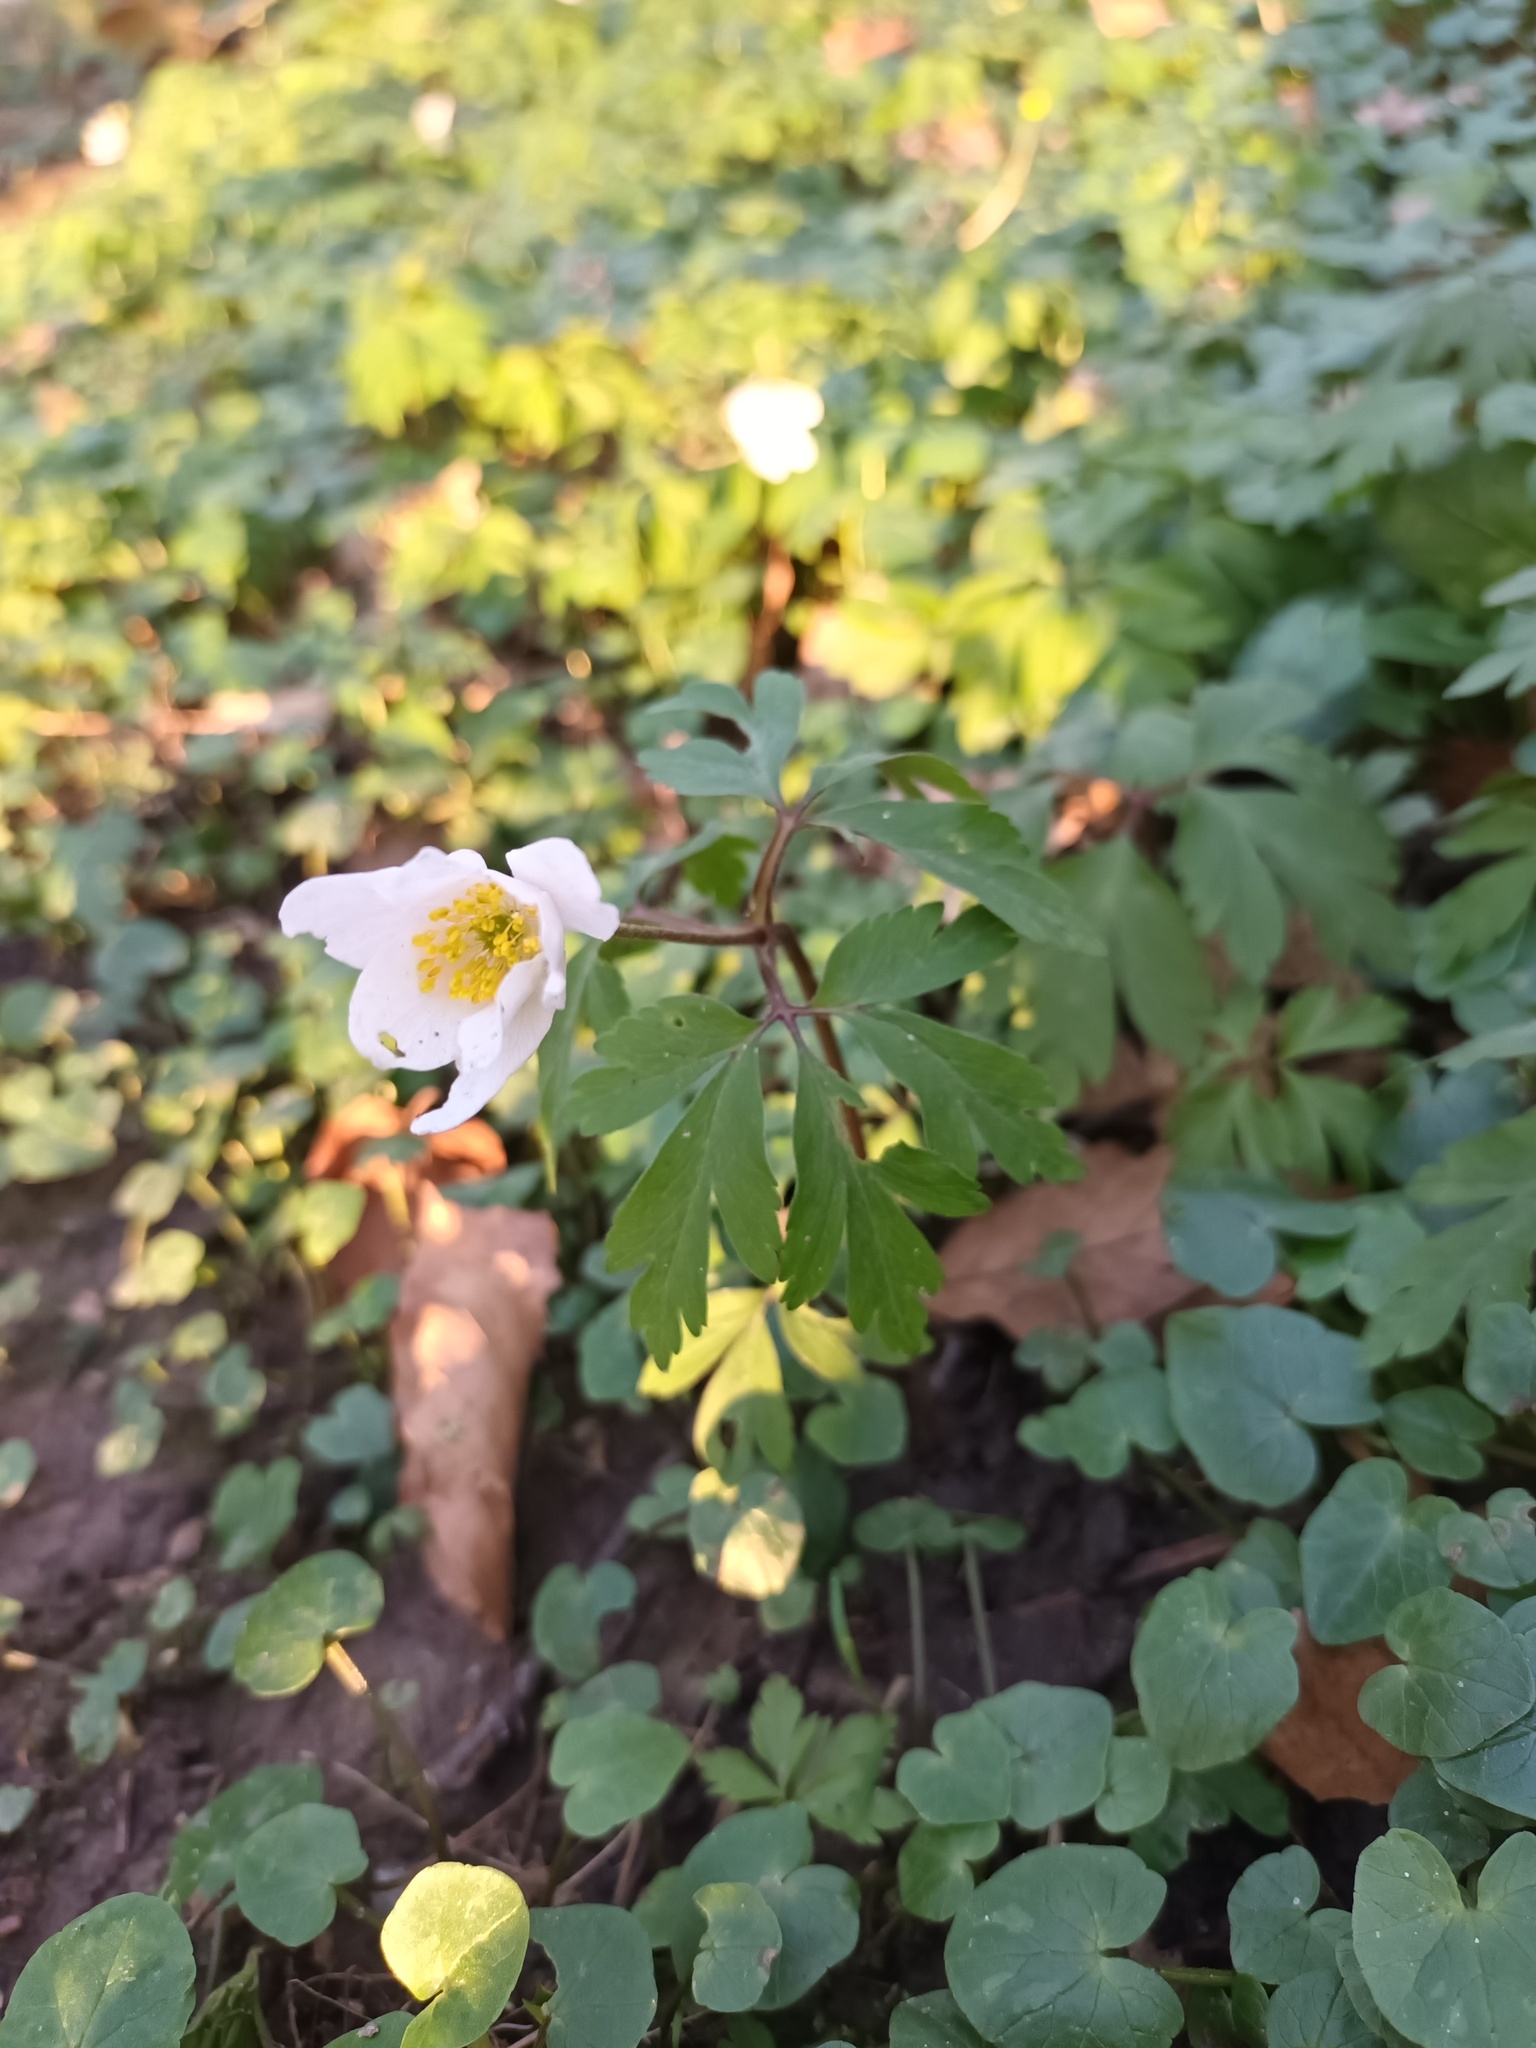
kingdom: Plantae
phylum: Tracheophyta
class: Magnoliopsida
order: Ranunculales
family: Ranunculaceae
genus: Anemone
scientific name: Anemone nemorosa
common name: Wood anemone
